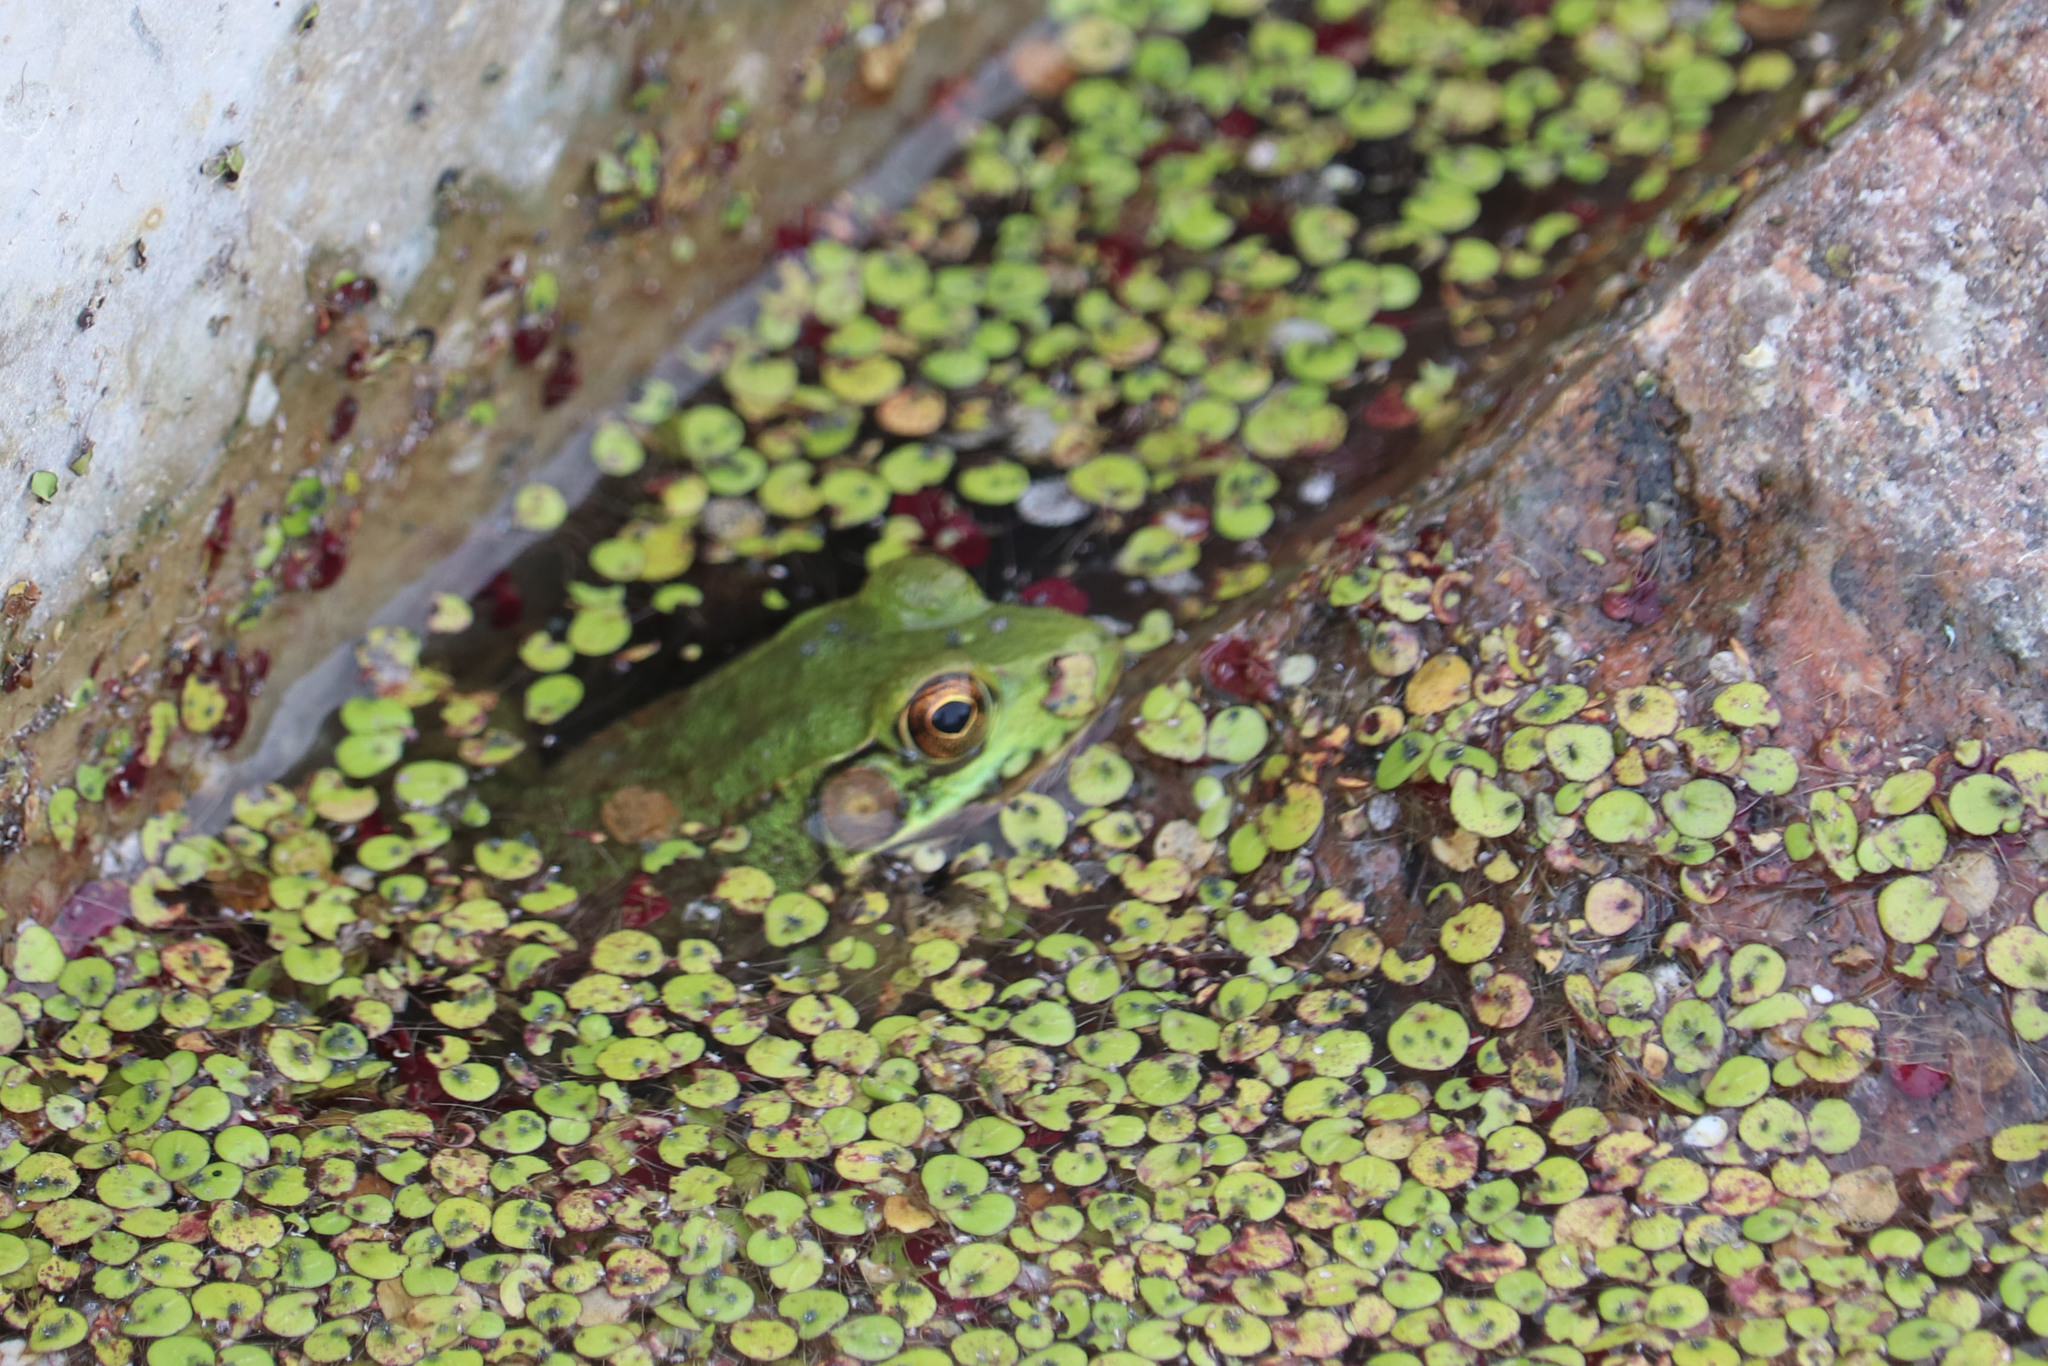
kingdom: Animalia
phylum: Chordata
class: Amphibia
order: Anura
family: Ranidae
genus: Lithobates
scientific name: Lithobates clamitans
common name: Green frog
